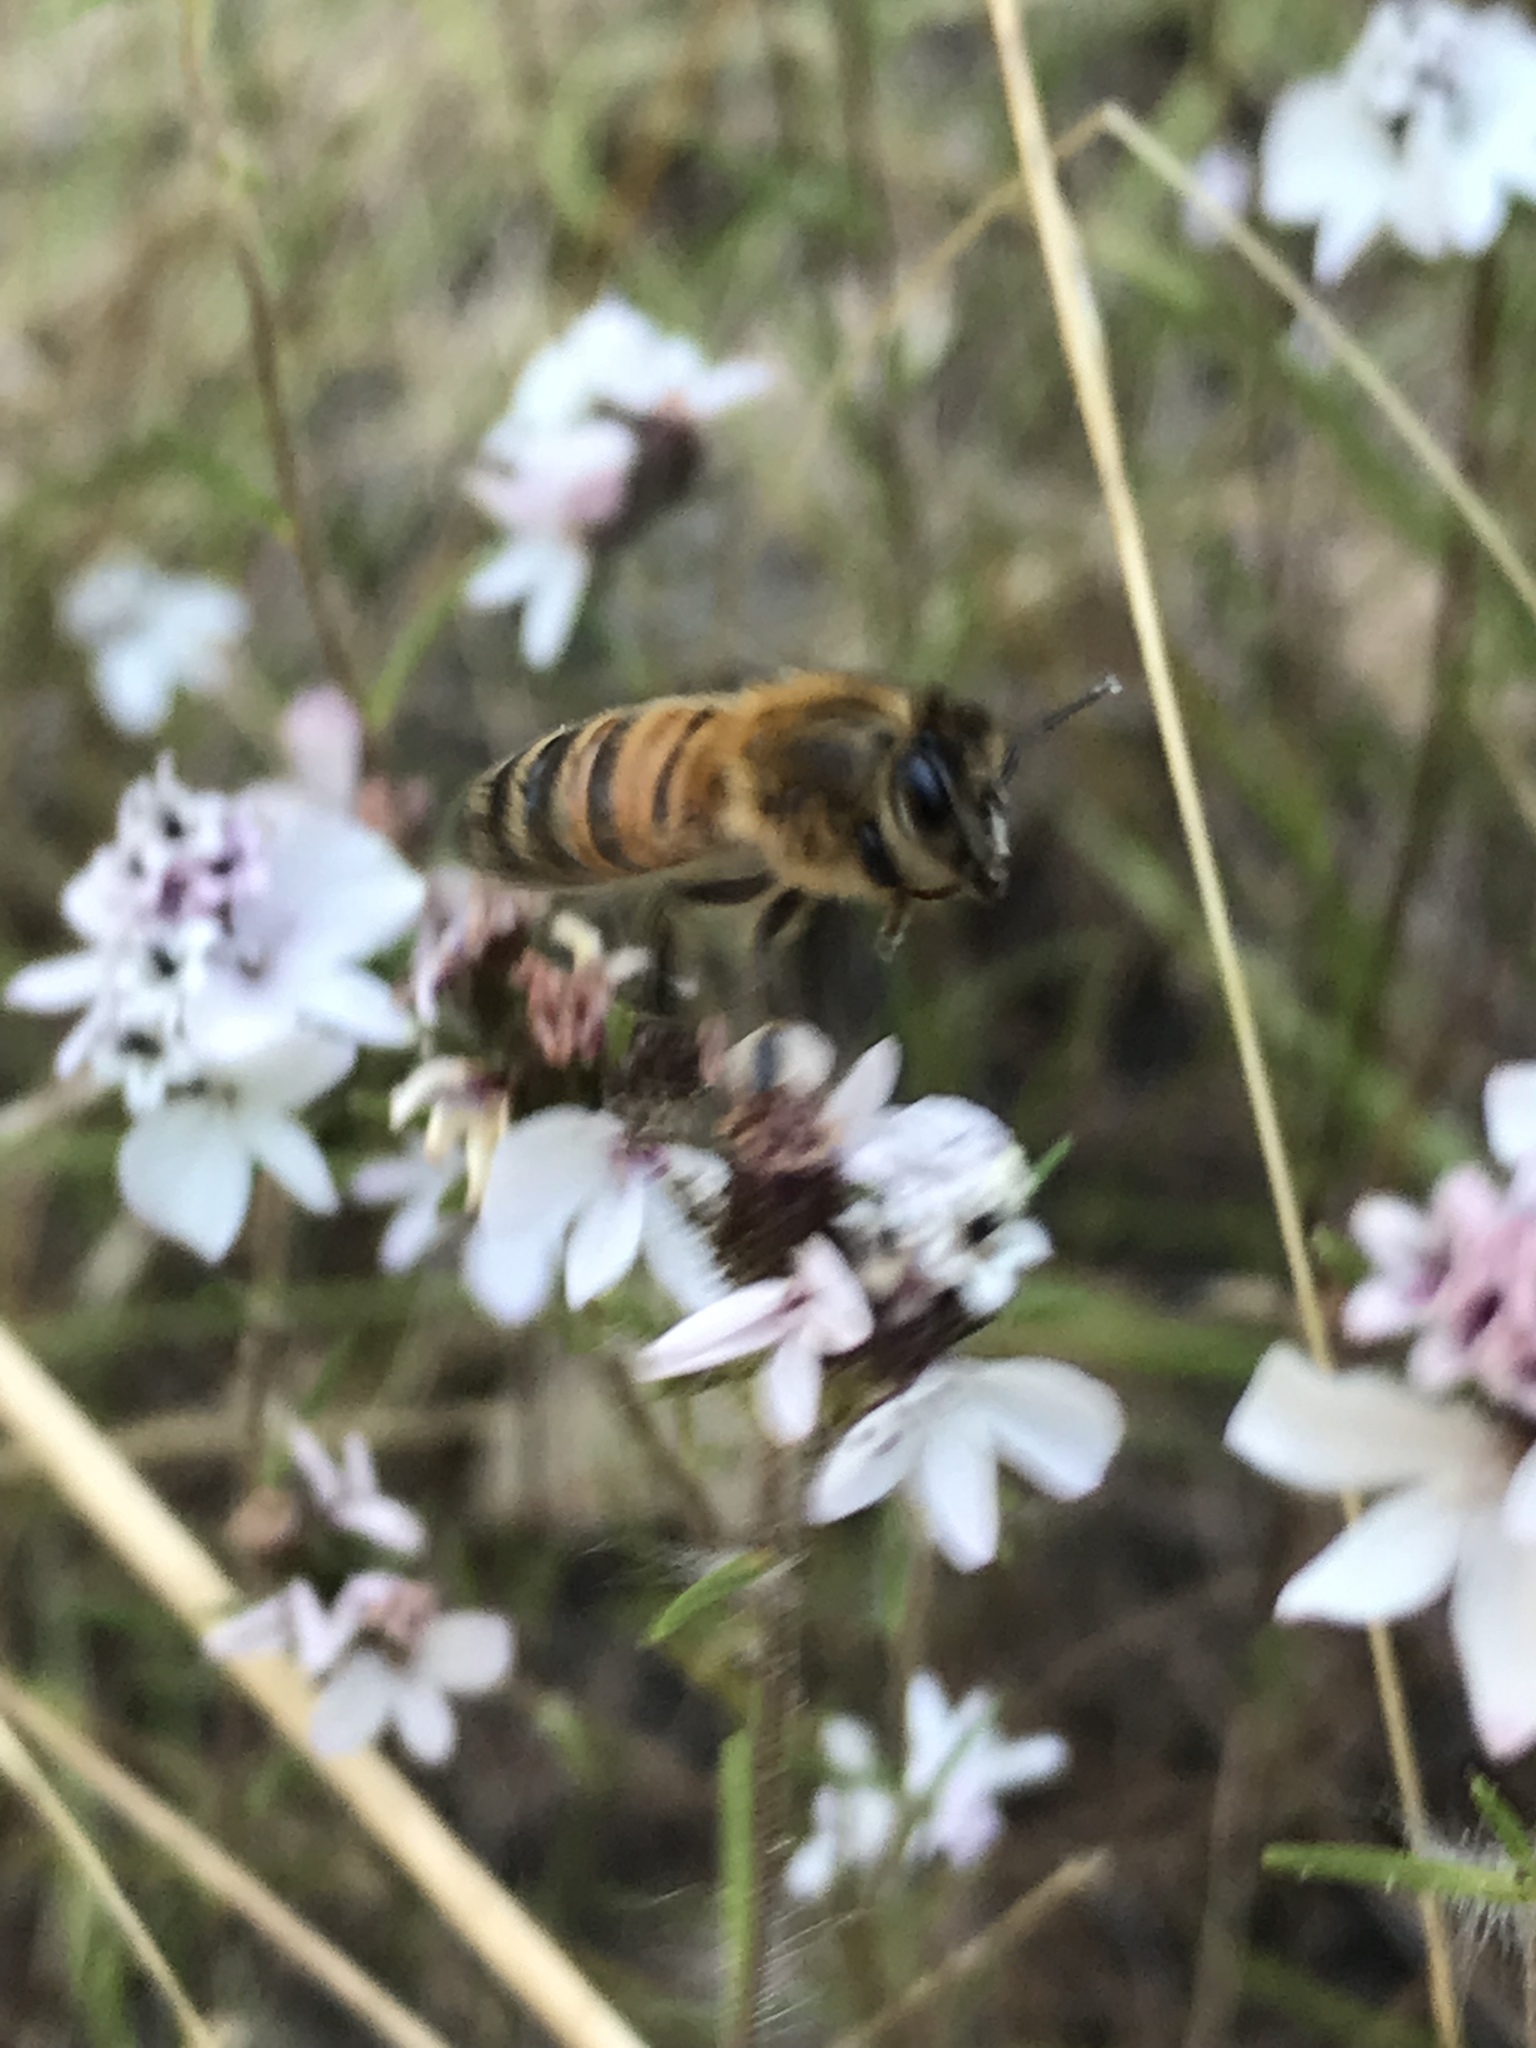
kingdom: Animalia
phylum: Arthropoda
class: Insecta
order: Hymenoptera
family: Apidae
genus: Apis
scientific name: Apis mellifera
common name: Honey bee
